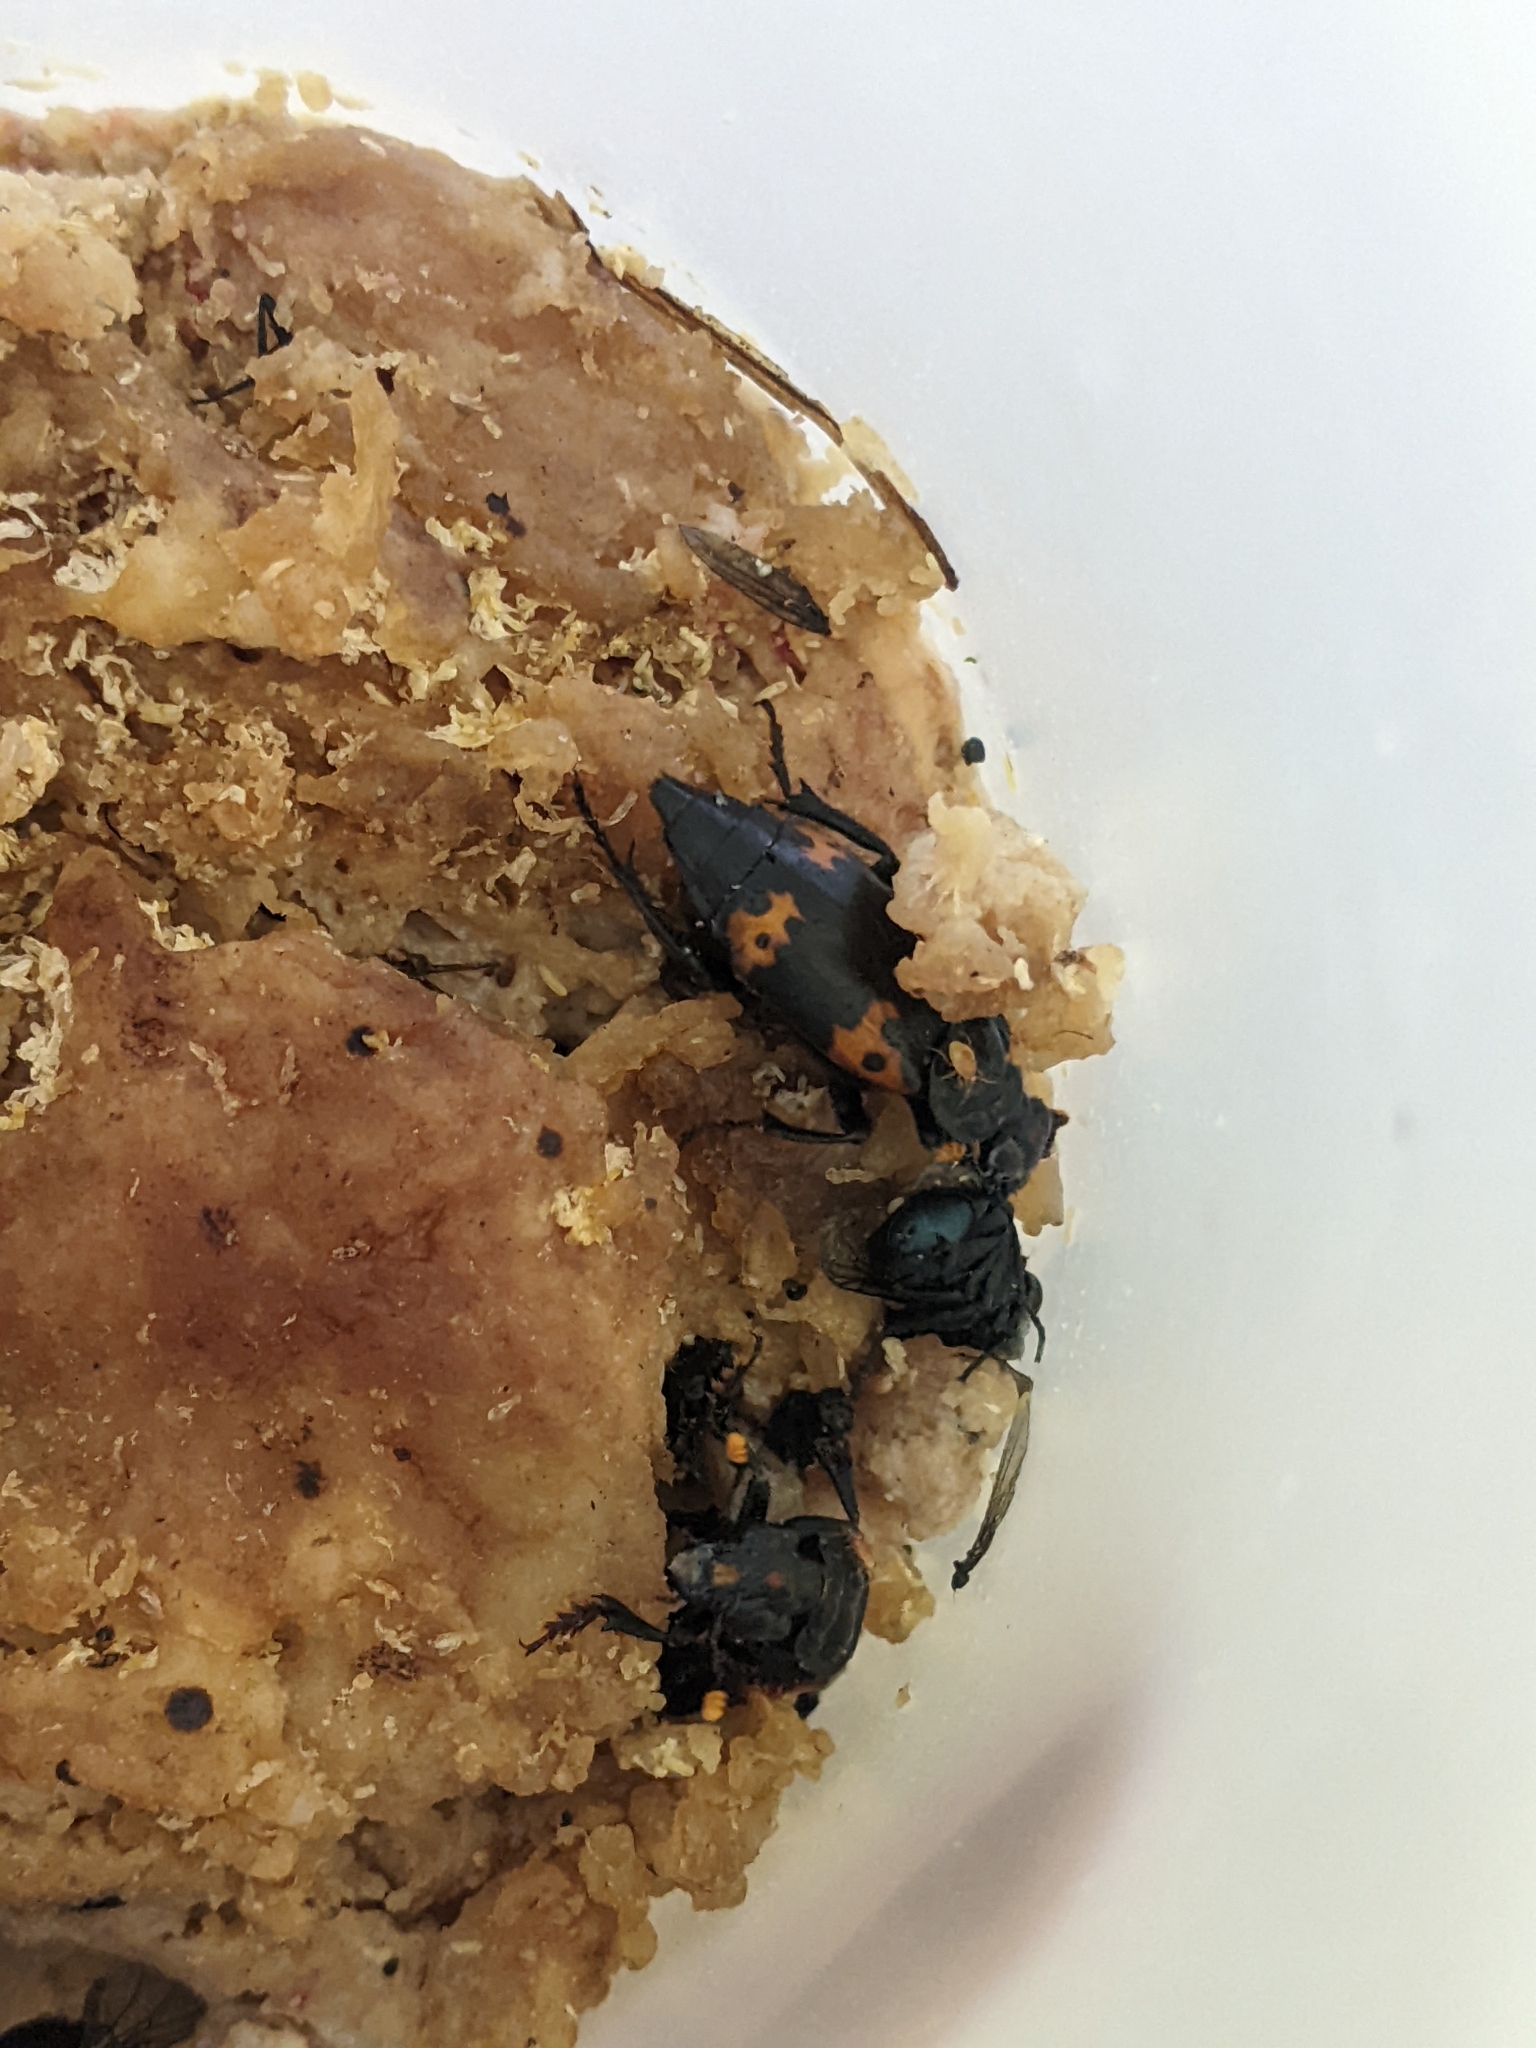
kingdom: Animalia
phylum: Arthropoda
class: Insecta
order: Coleoptera
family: Staphylinidae
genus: Nicrophorus
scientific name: Nicrophorus nepalensis
